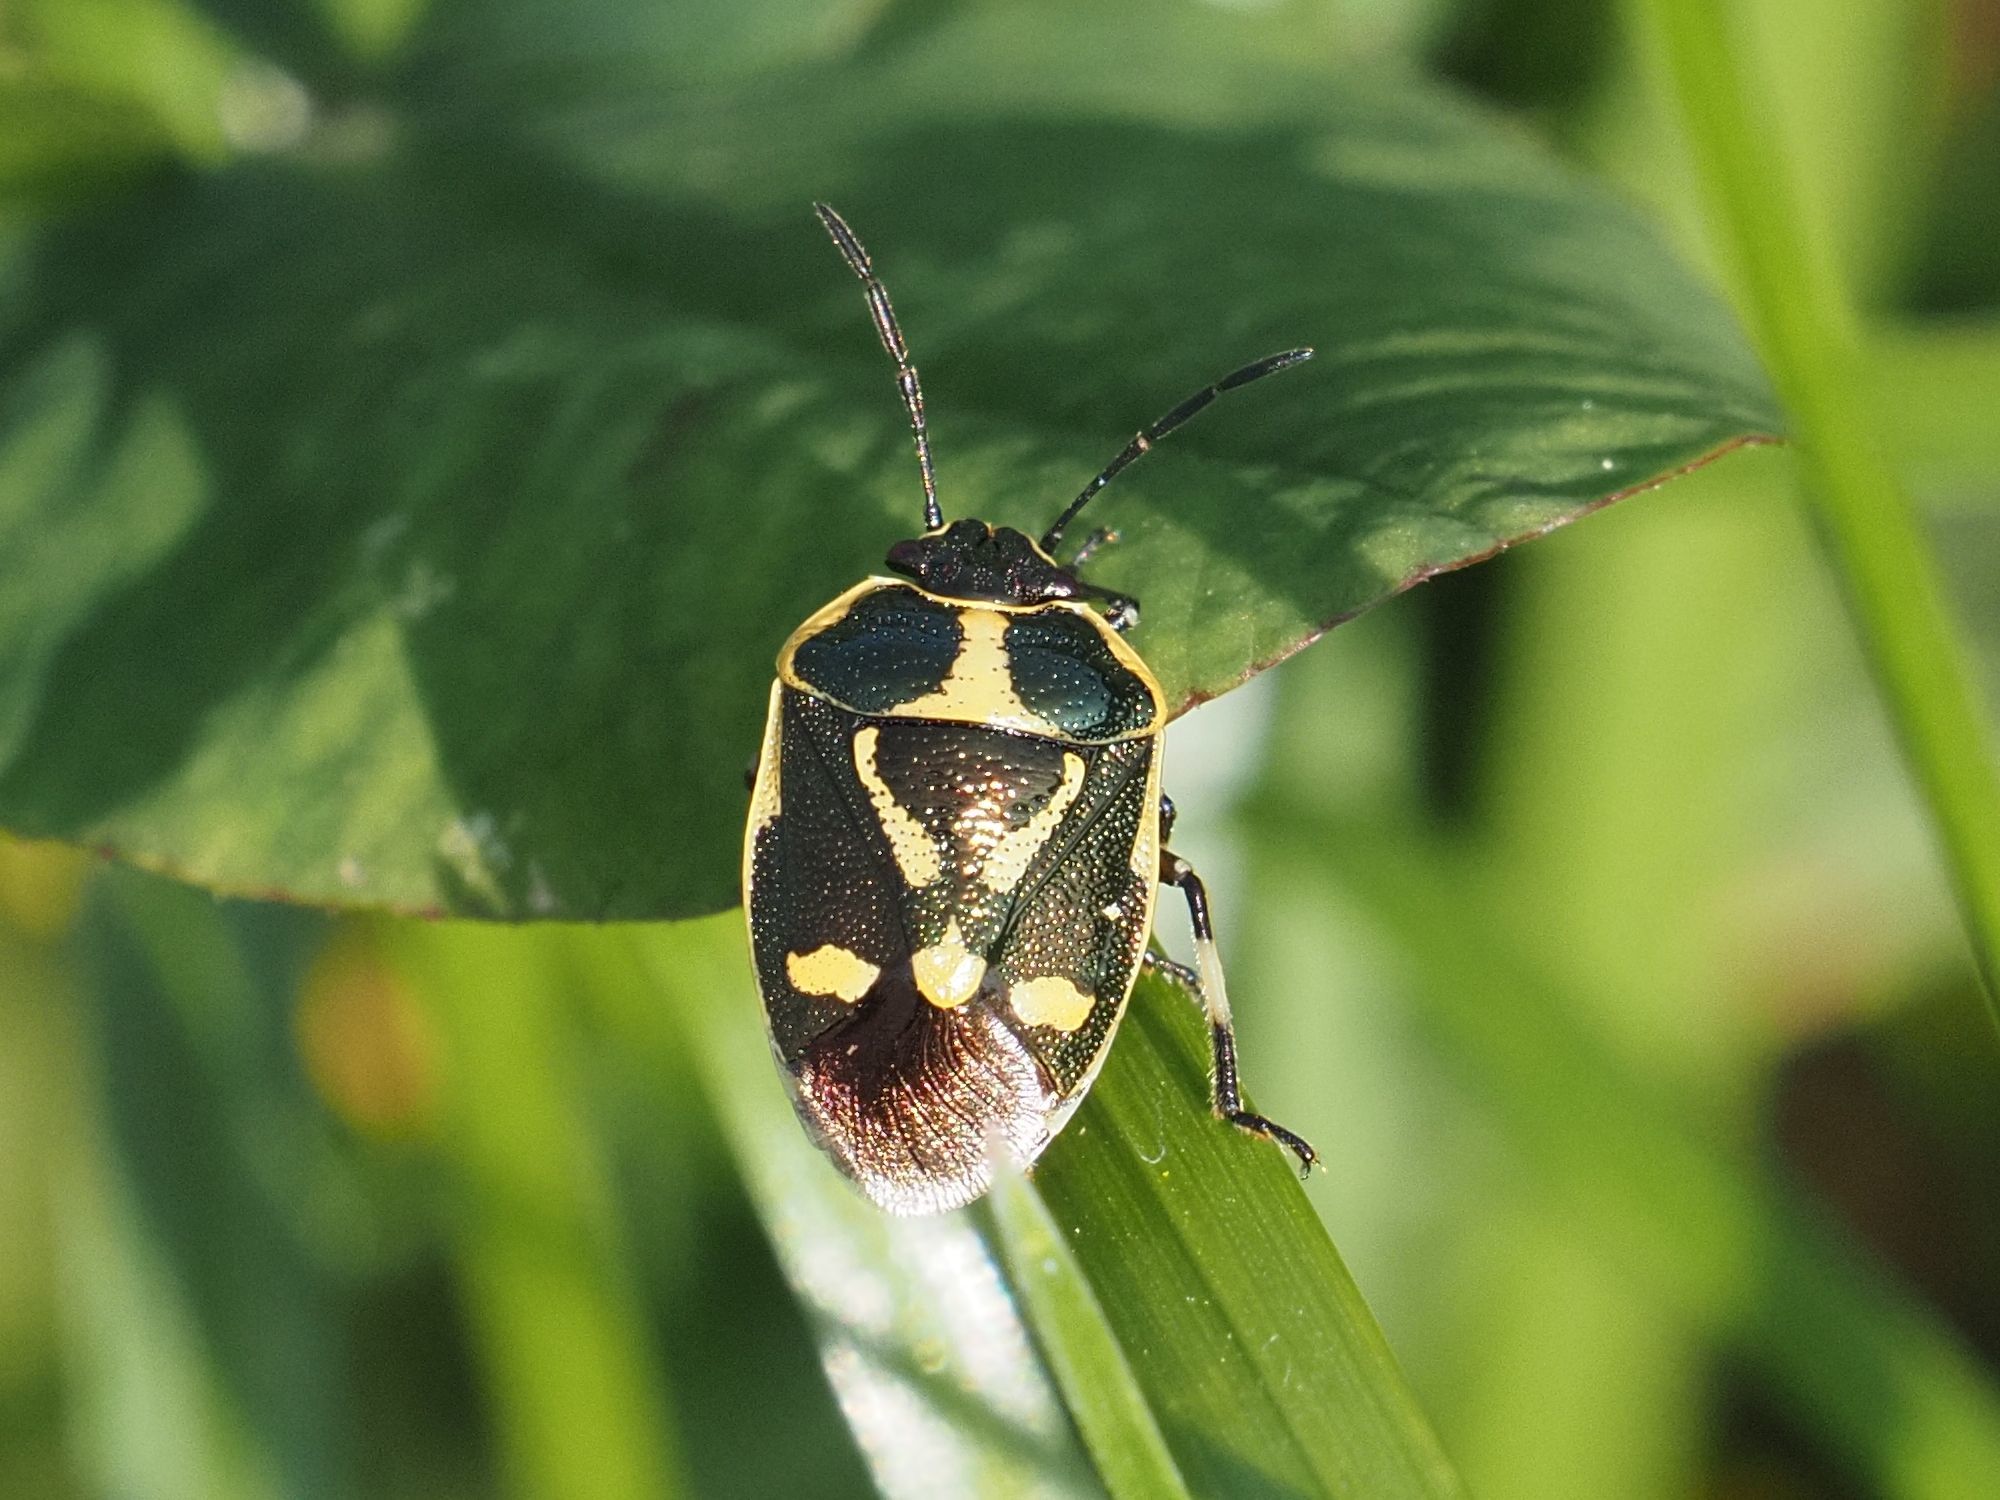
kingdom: Animalia
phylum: Arthropoda
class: Insecta
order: Hemiptera
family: Pentatomidae
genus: Eurydema
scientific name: Eurydema oleracea
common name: Cabbage bug
